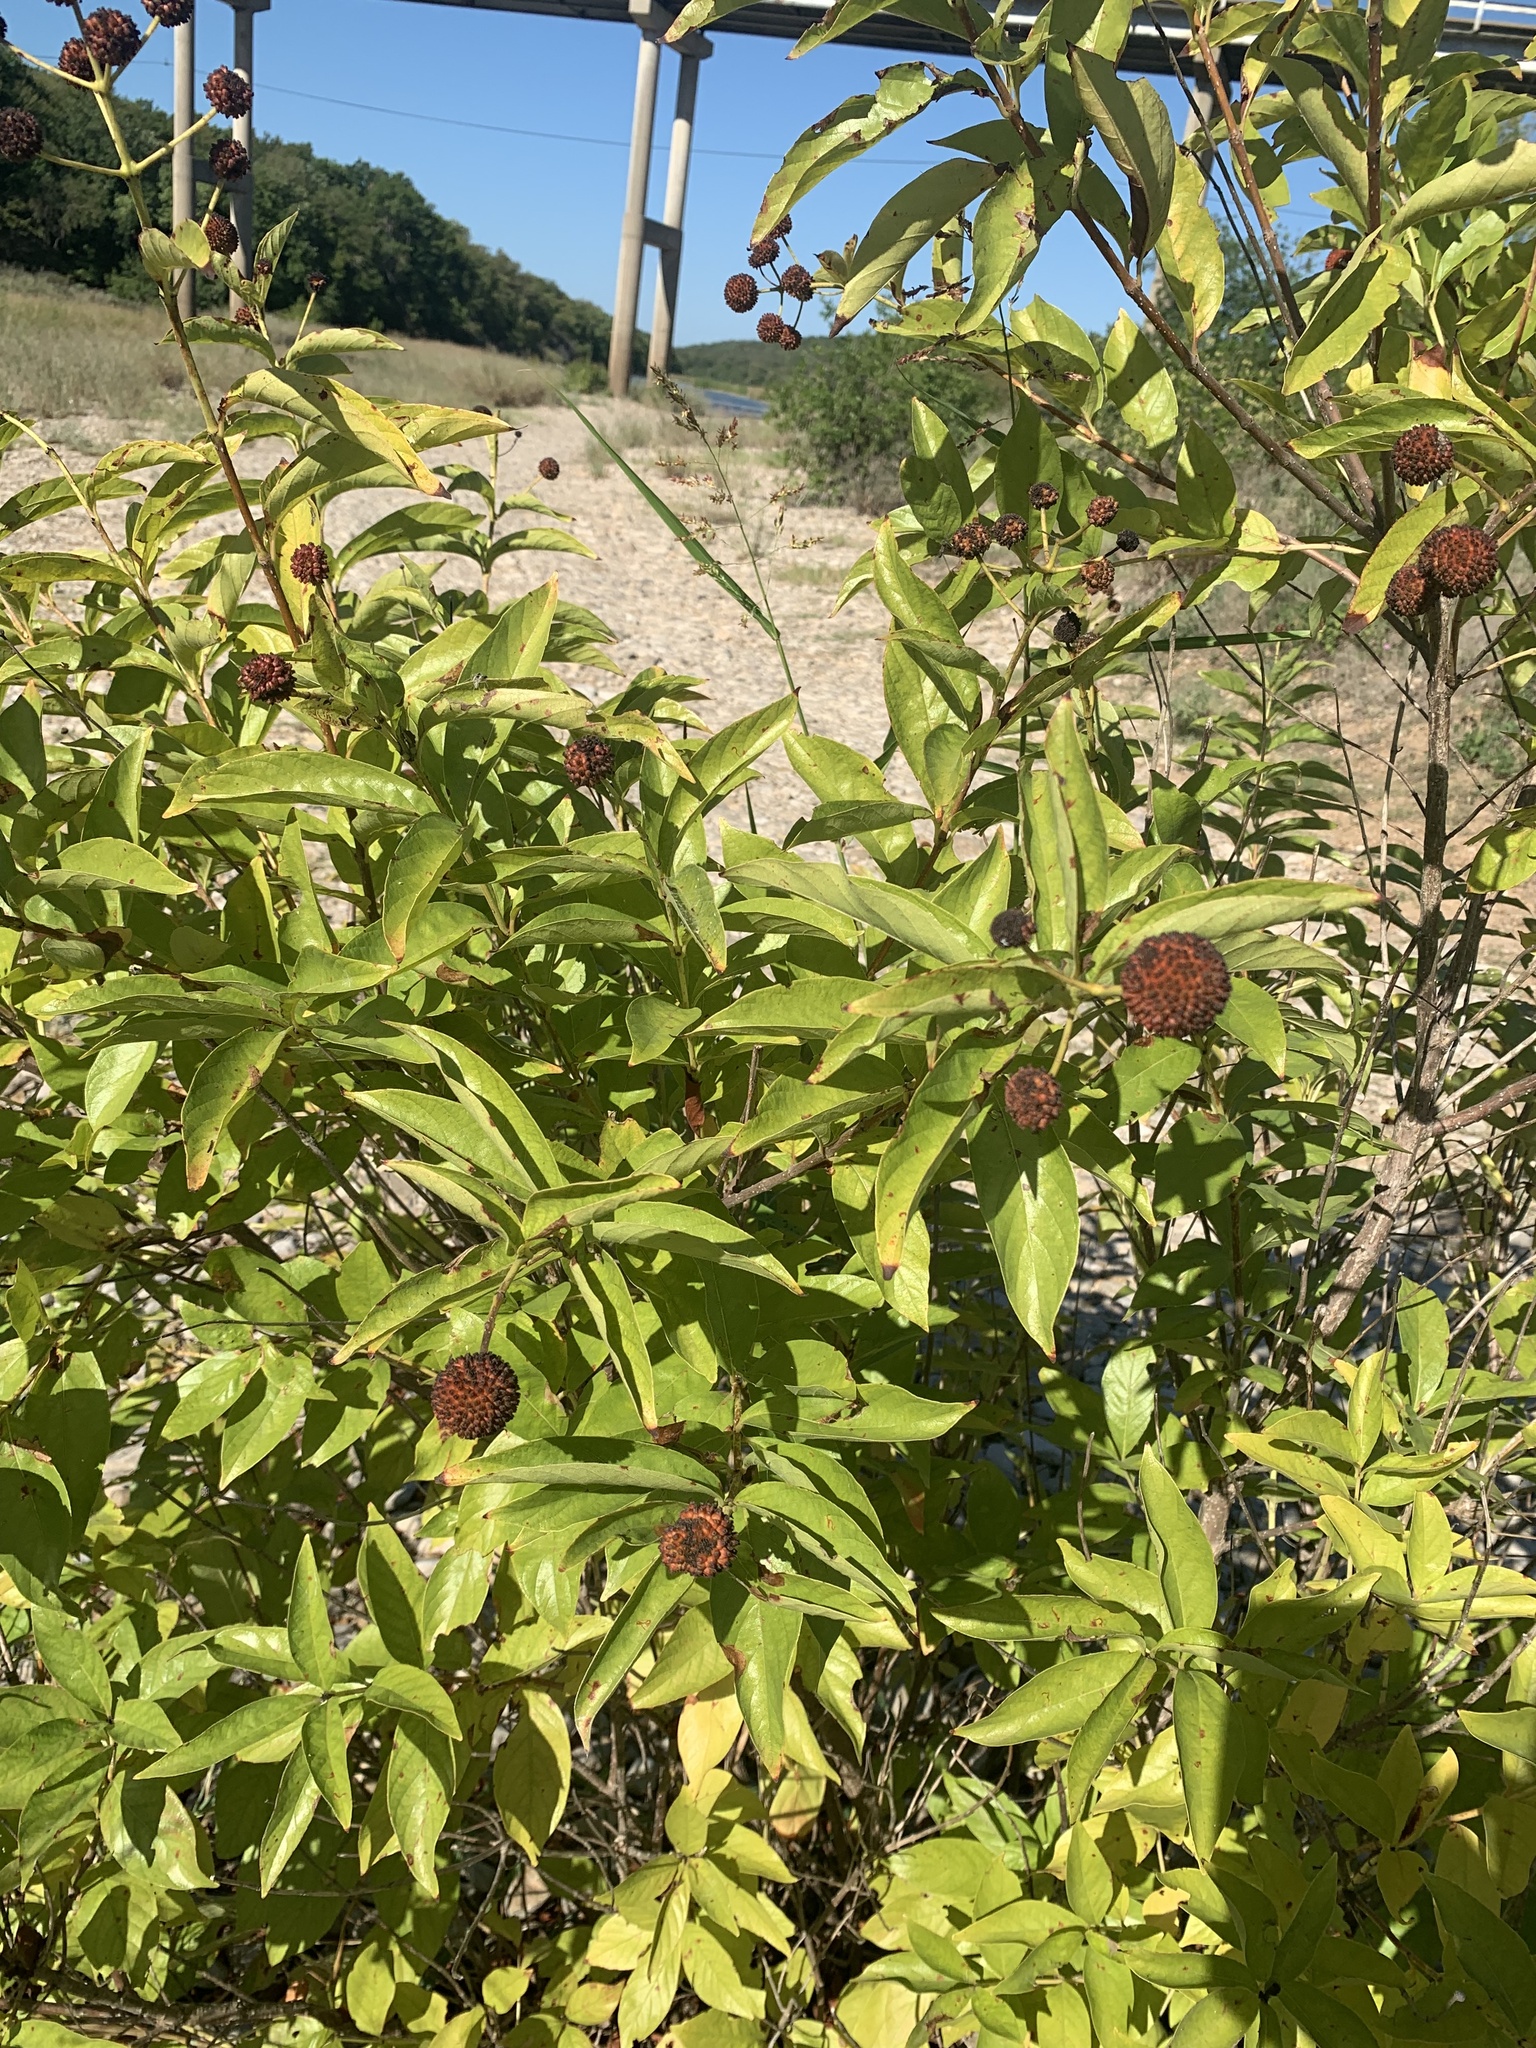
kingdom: Plantae
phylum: Tracheophyta
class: Magnoliopsida
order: Gentianales
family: Rubiaceae
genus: Cephalanthus
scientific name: Cephalanthus occidentalis
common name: Button-willow
